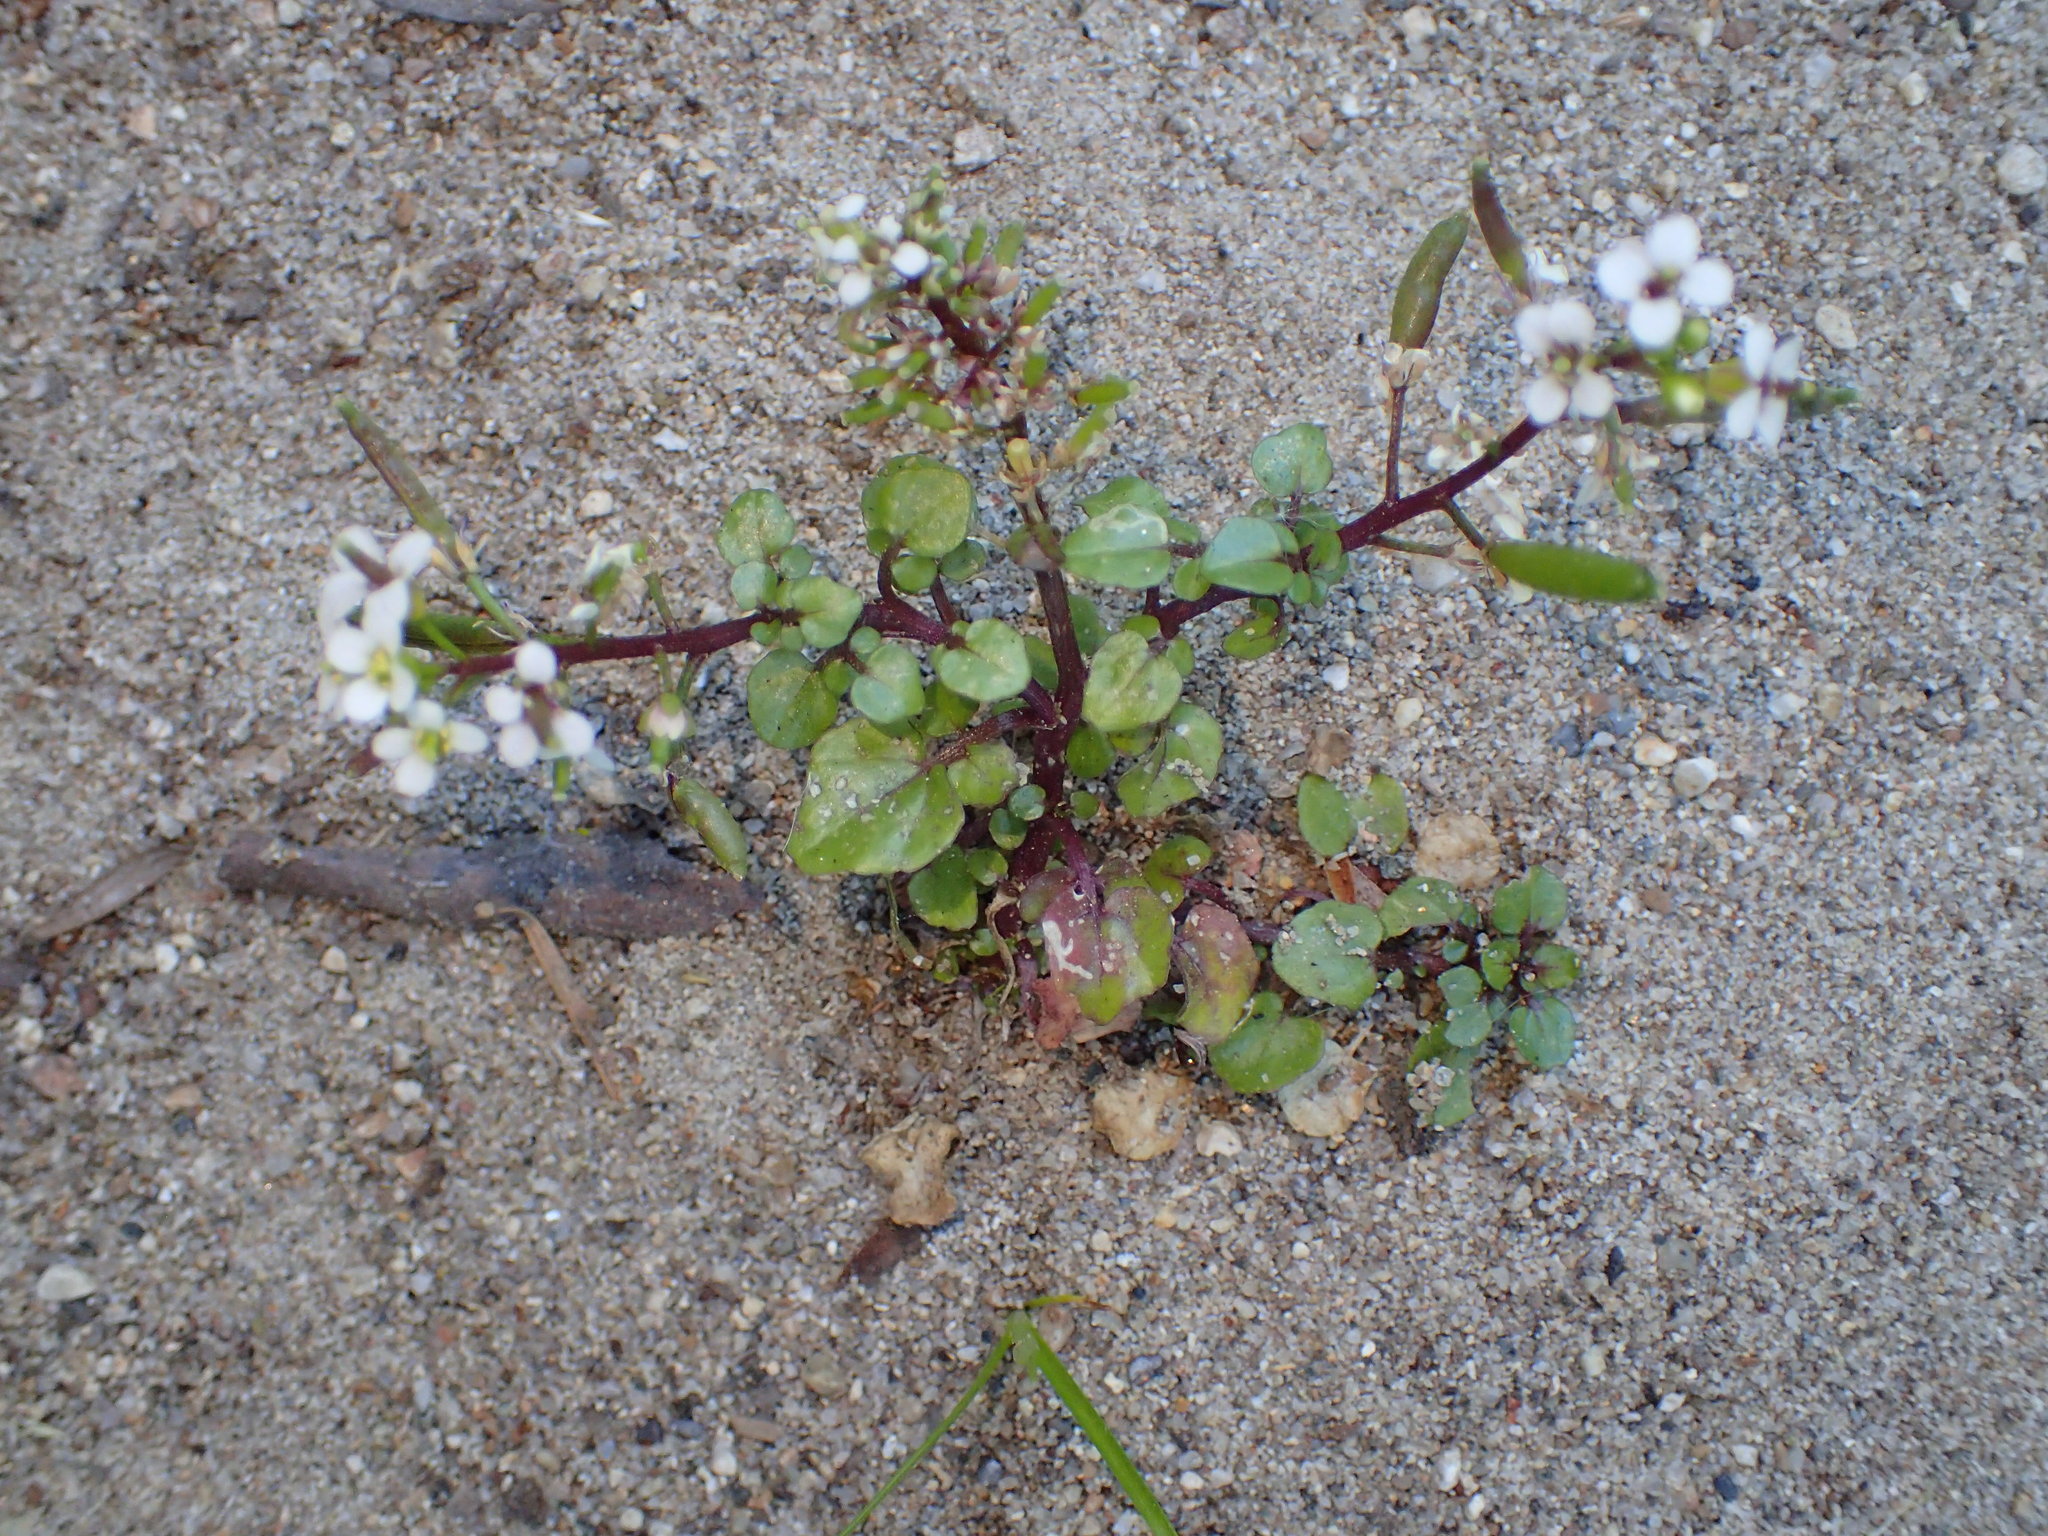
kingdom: Plantae
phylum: Tracheophyta
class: Magnoliopsida
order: Brassicales
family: Brassicaceae
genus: Nasturtium
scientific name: Nasturtium officinale
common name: Watercress
